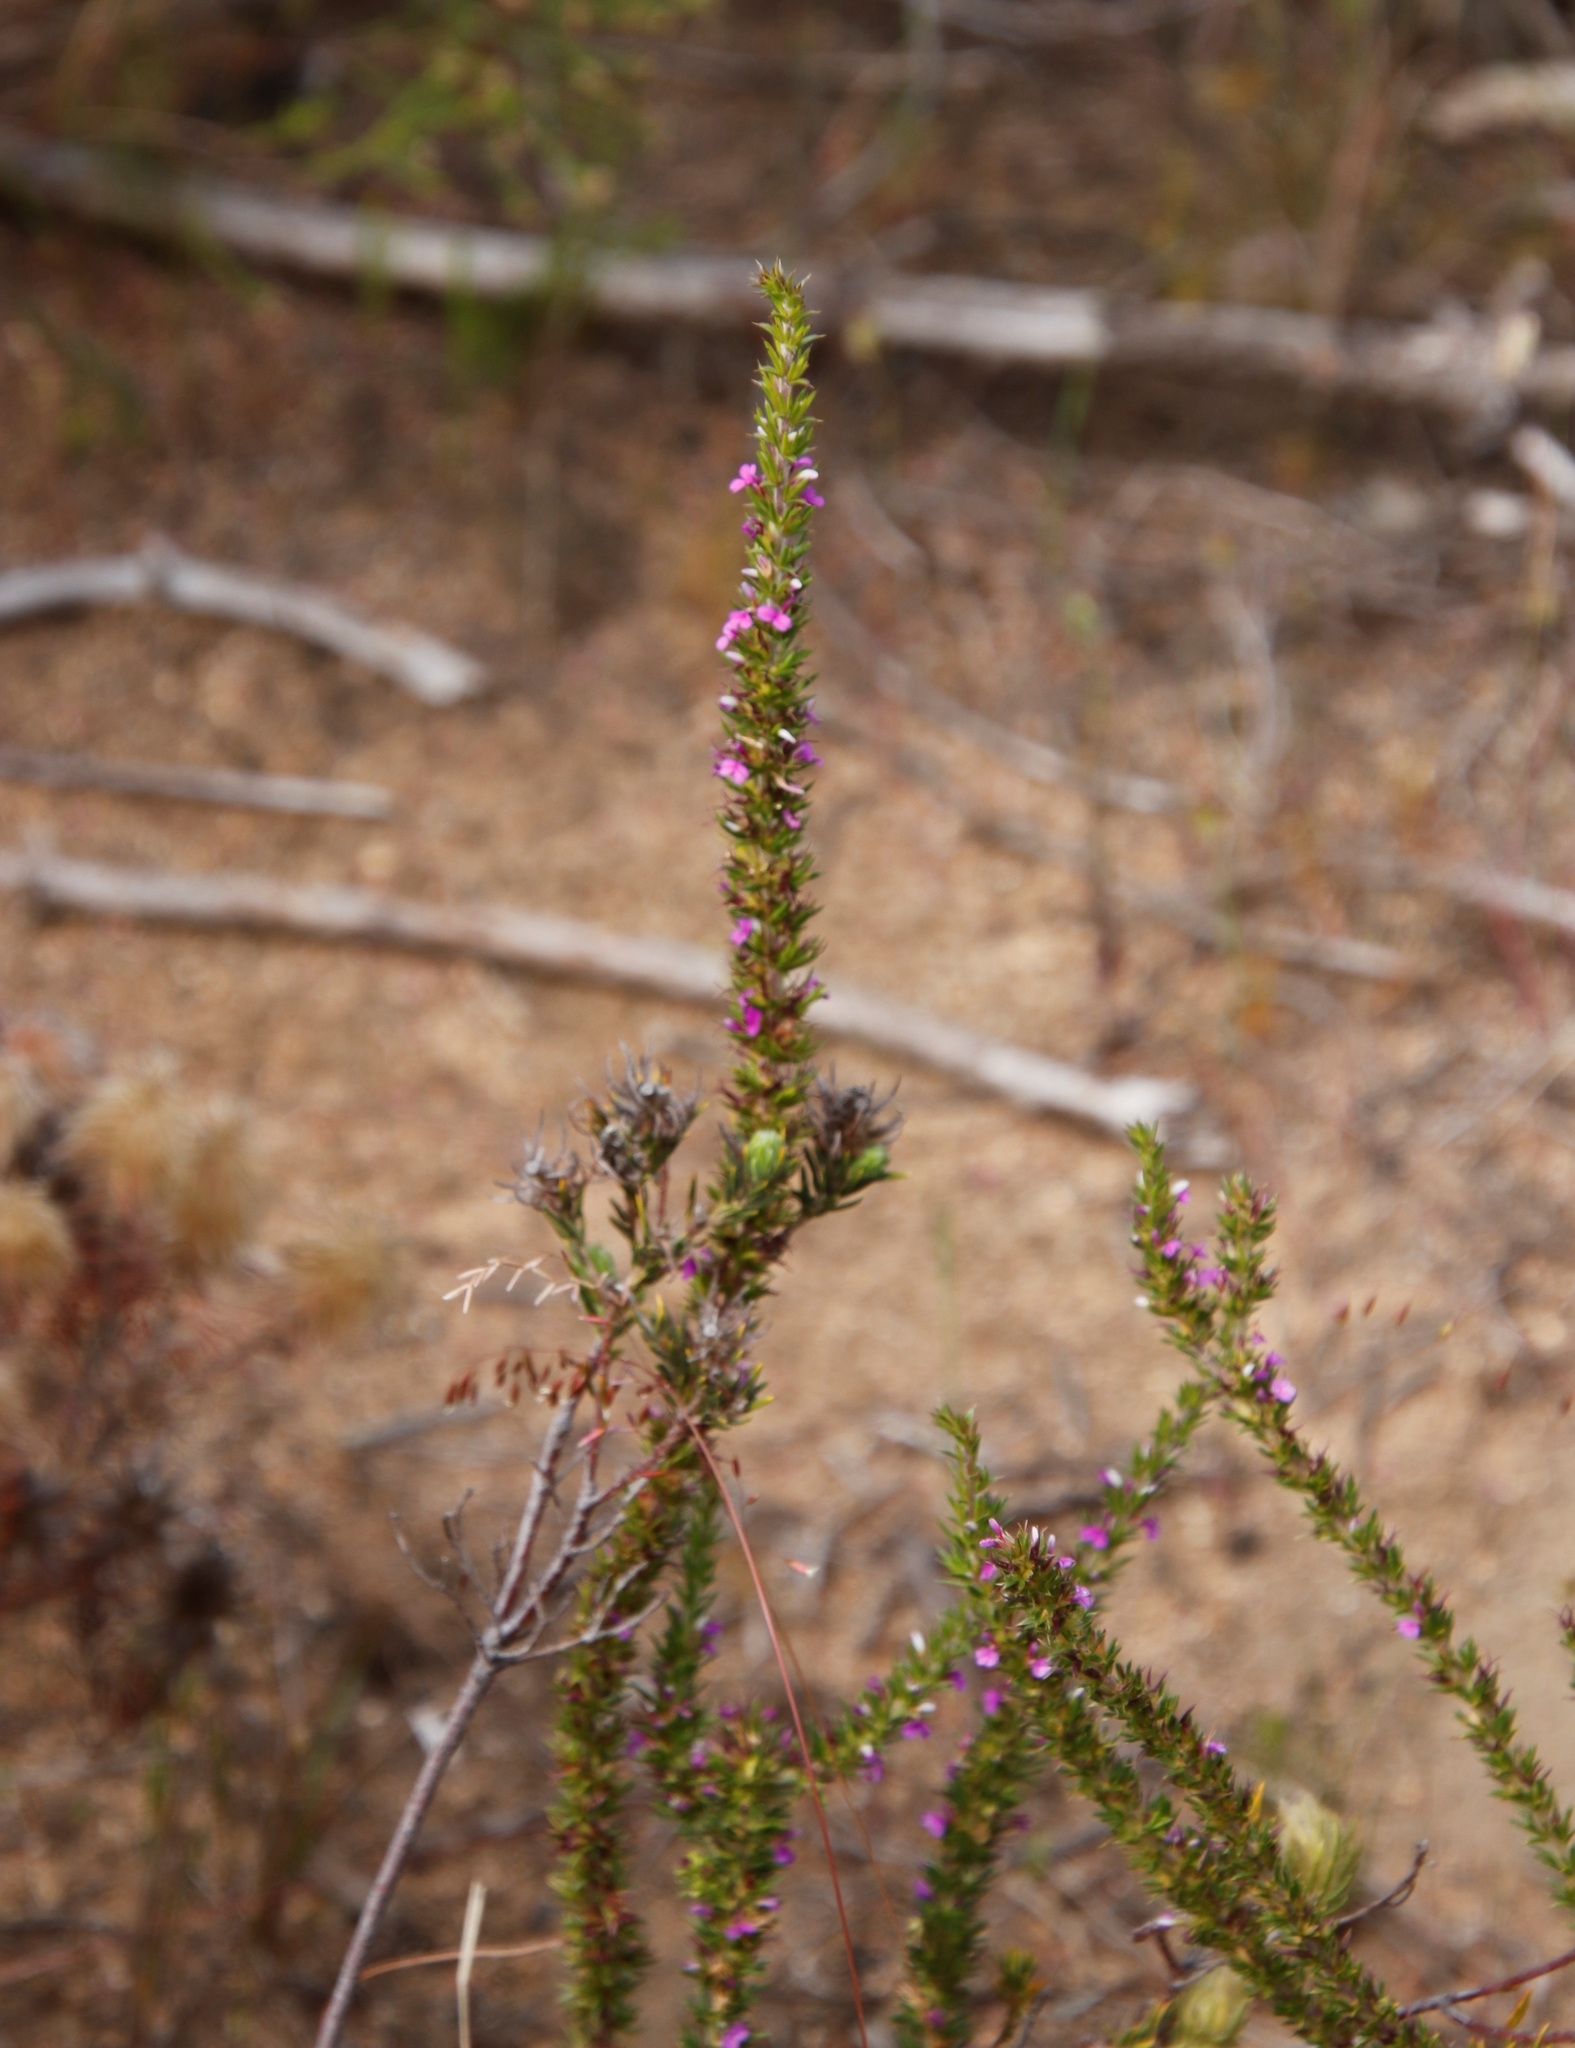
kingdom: Plantae
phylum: Tracheophyta
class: Magnoliopsida
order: Fabales
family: Polygalaceae
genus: Muraltia
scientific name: Muraltia heisteria
